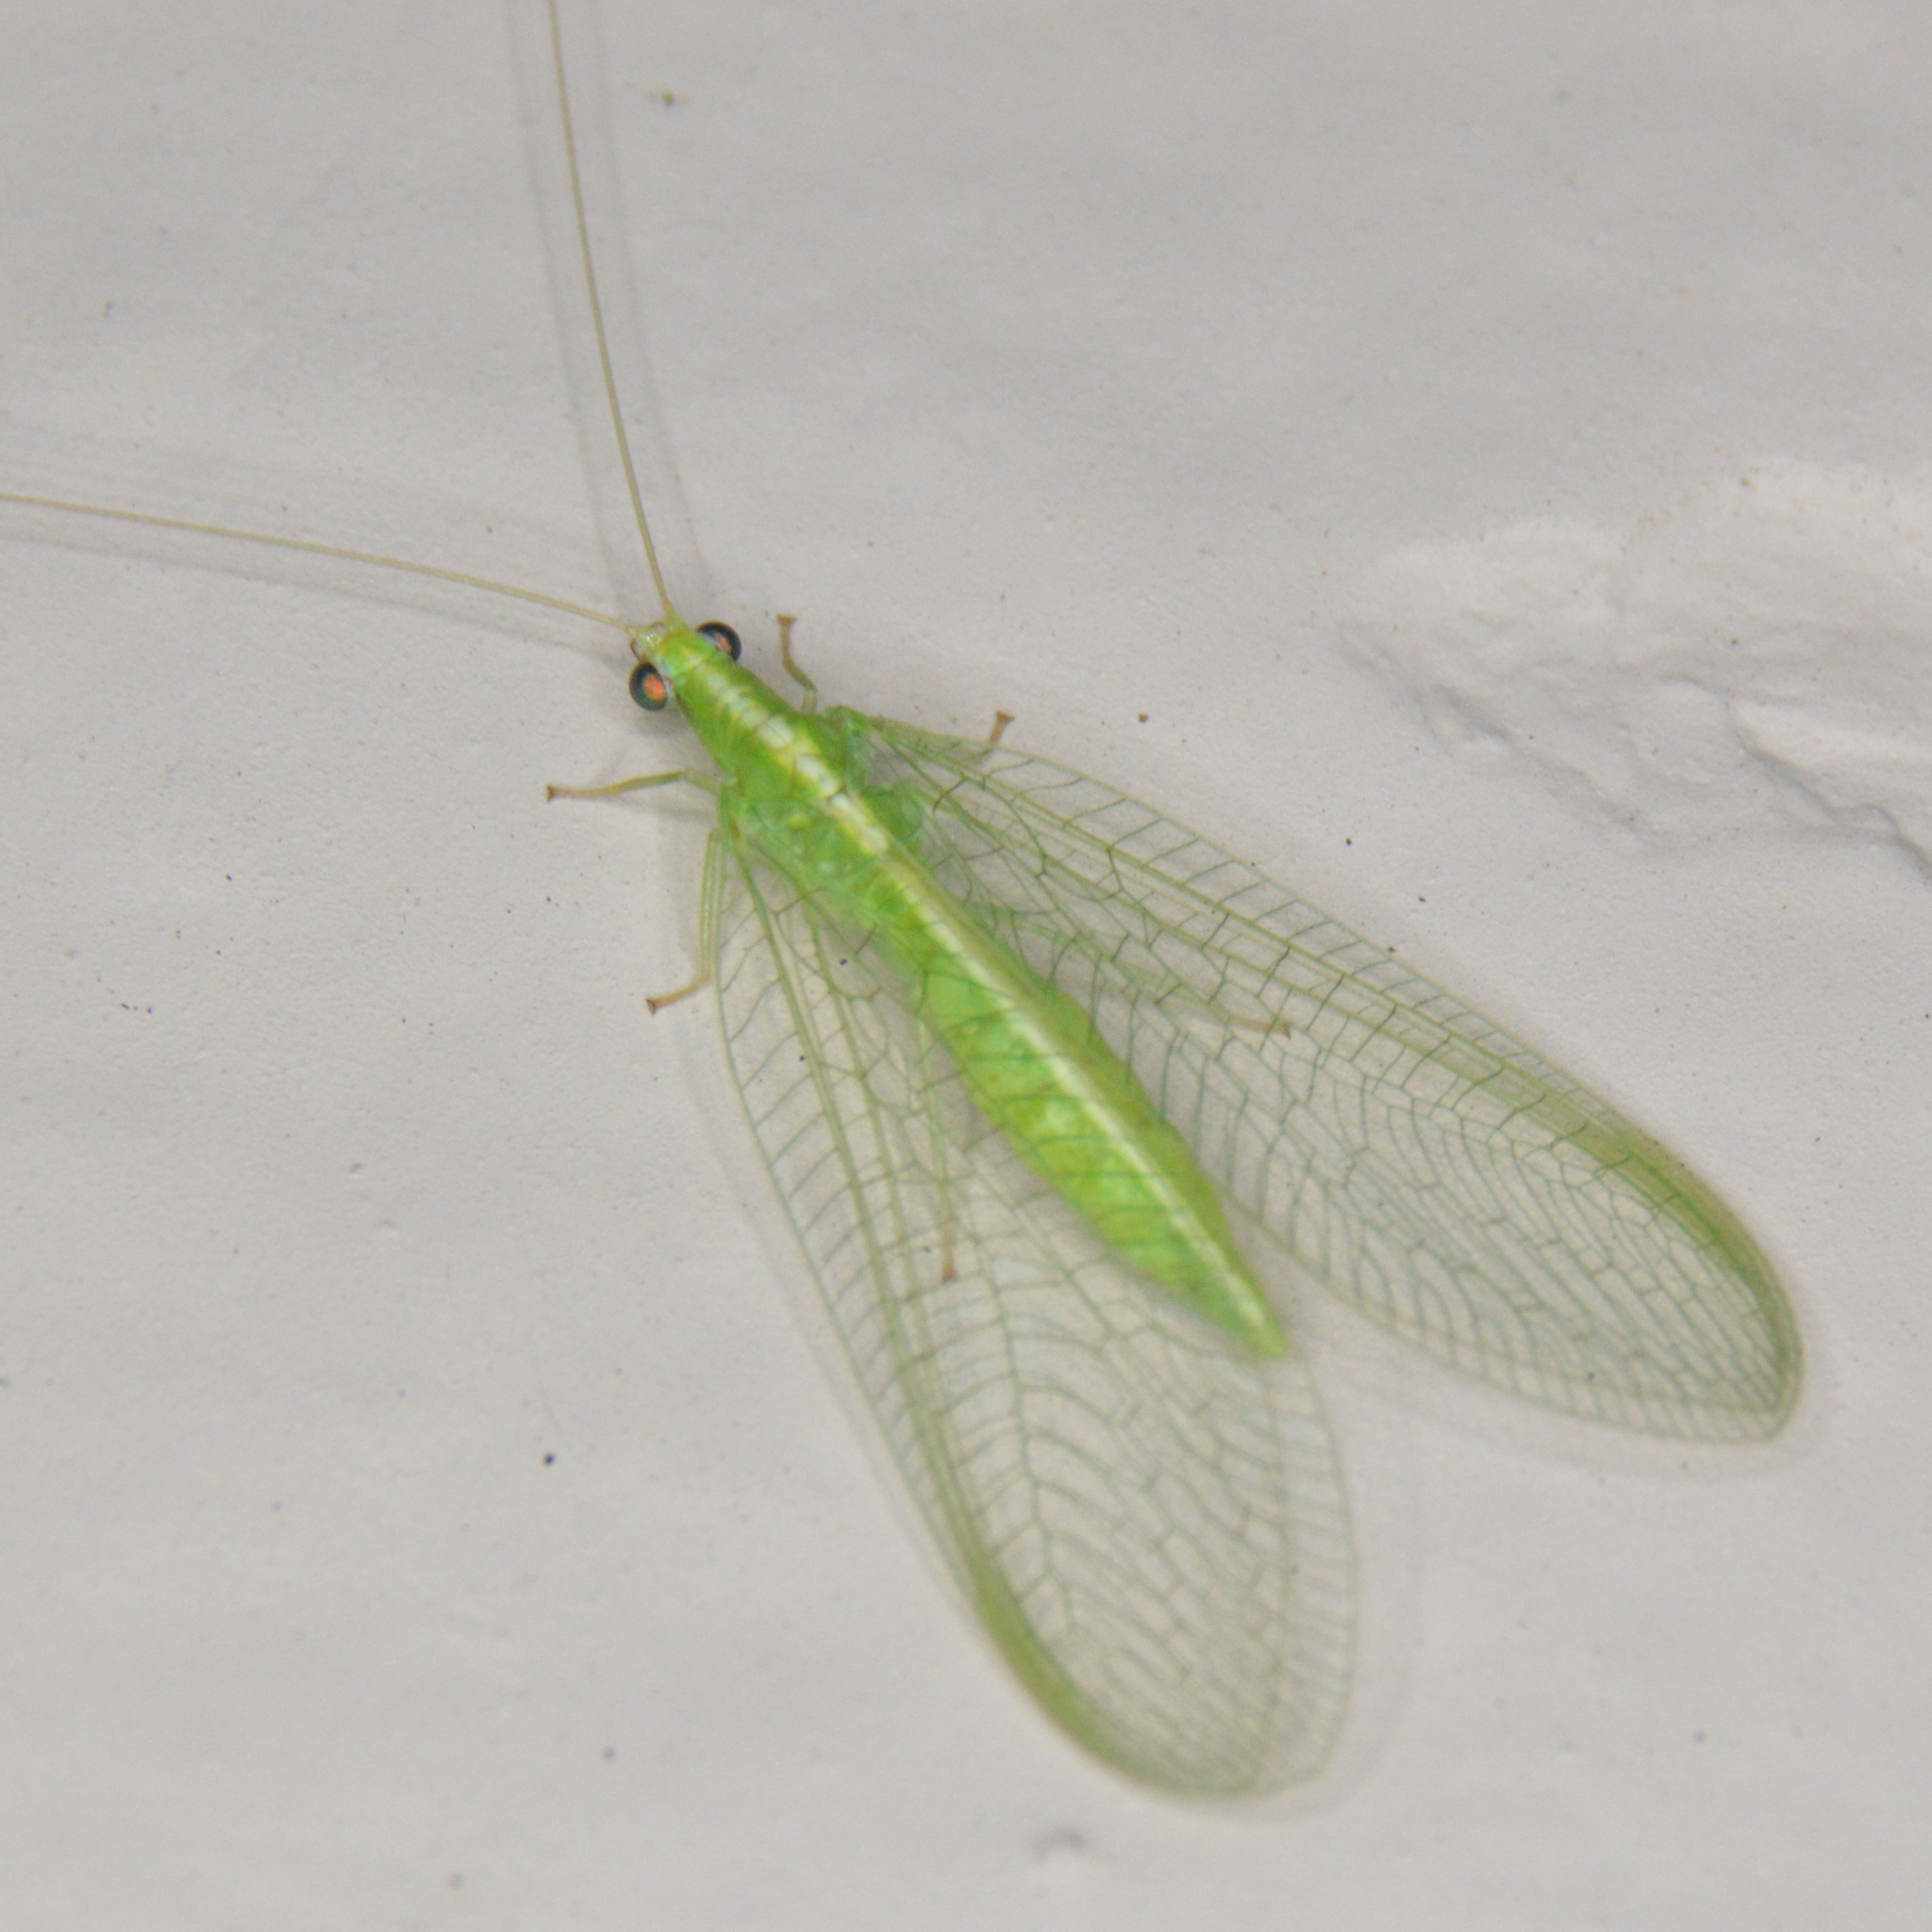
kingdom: Animalia
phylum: Arthropoda
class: Insecta
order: Neuroptera
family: Chrysopidae
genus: Chrysoperla
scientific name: Chrysoperla
